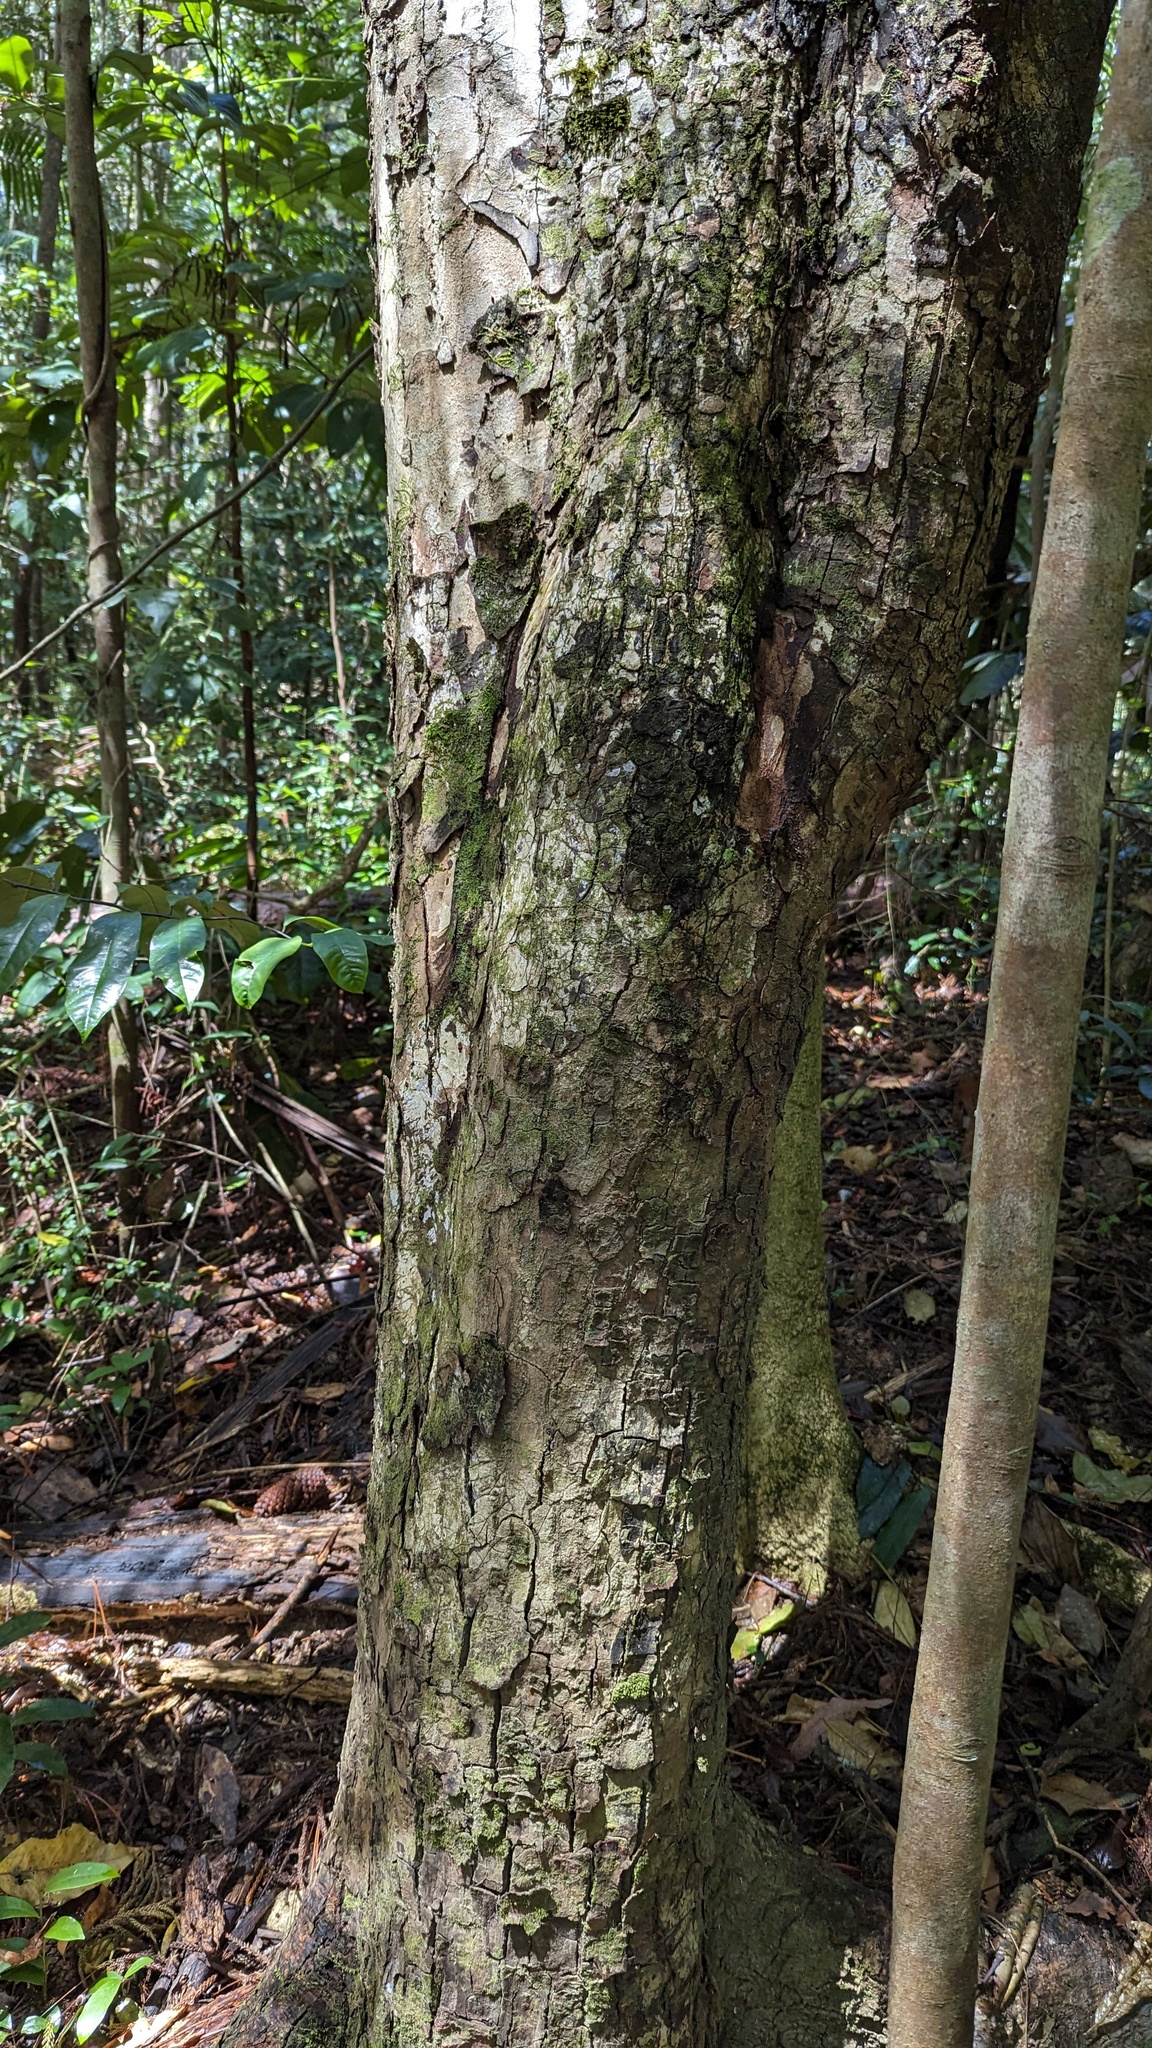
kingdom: Plantae
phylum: Tracheophyta
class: Magnoliopsida
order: Sapindales
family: Meliaceae
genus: Toona
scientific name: Toona ciliata
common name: Australian redcedar
